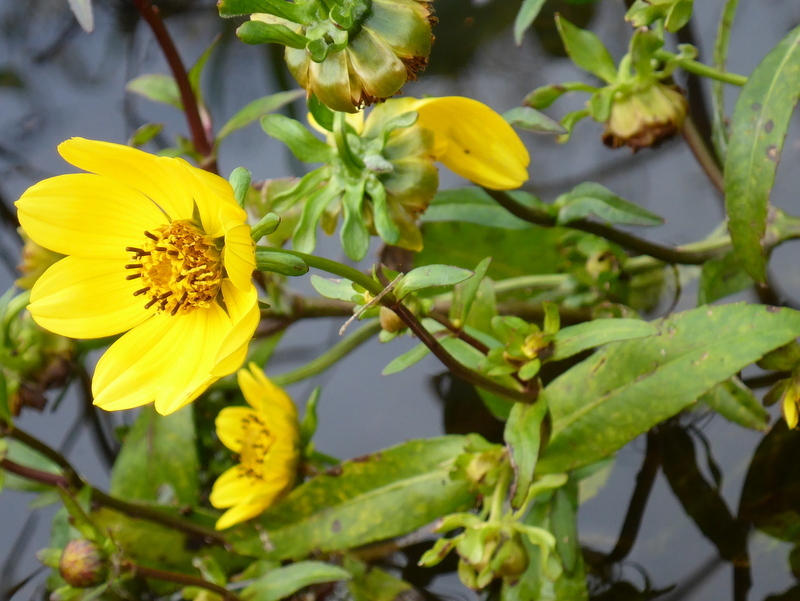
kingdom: Plantae
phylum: Tracheophyta
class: Magnoliopsida
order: Asterales
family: Asteraceae
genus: Bidens
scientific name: Bidens laevis
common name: Larger bur-marigold
